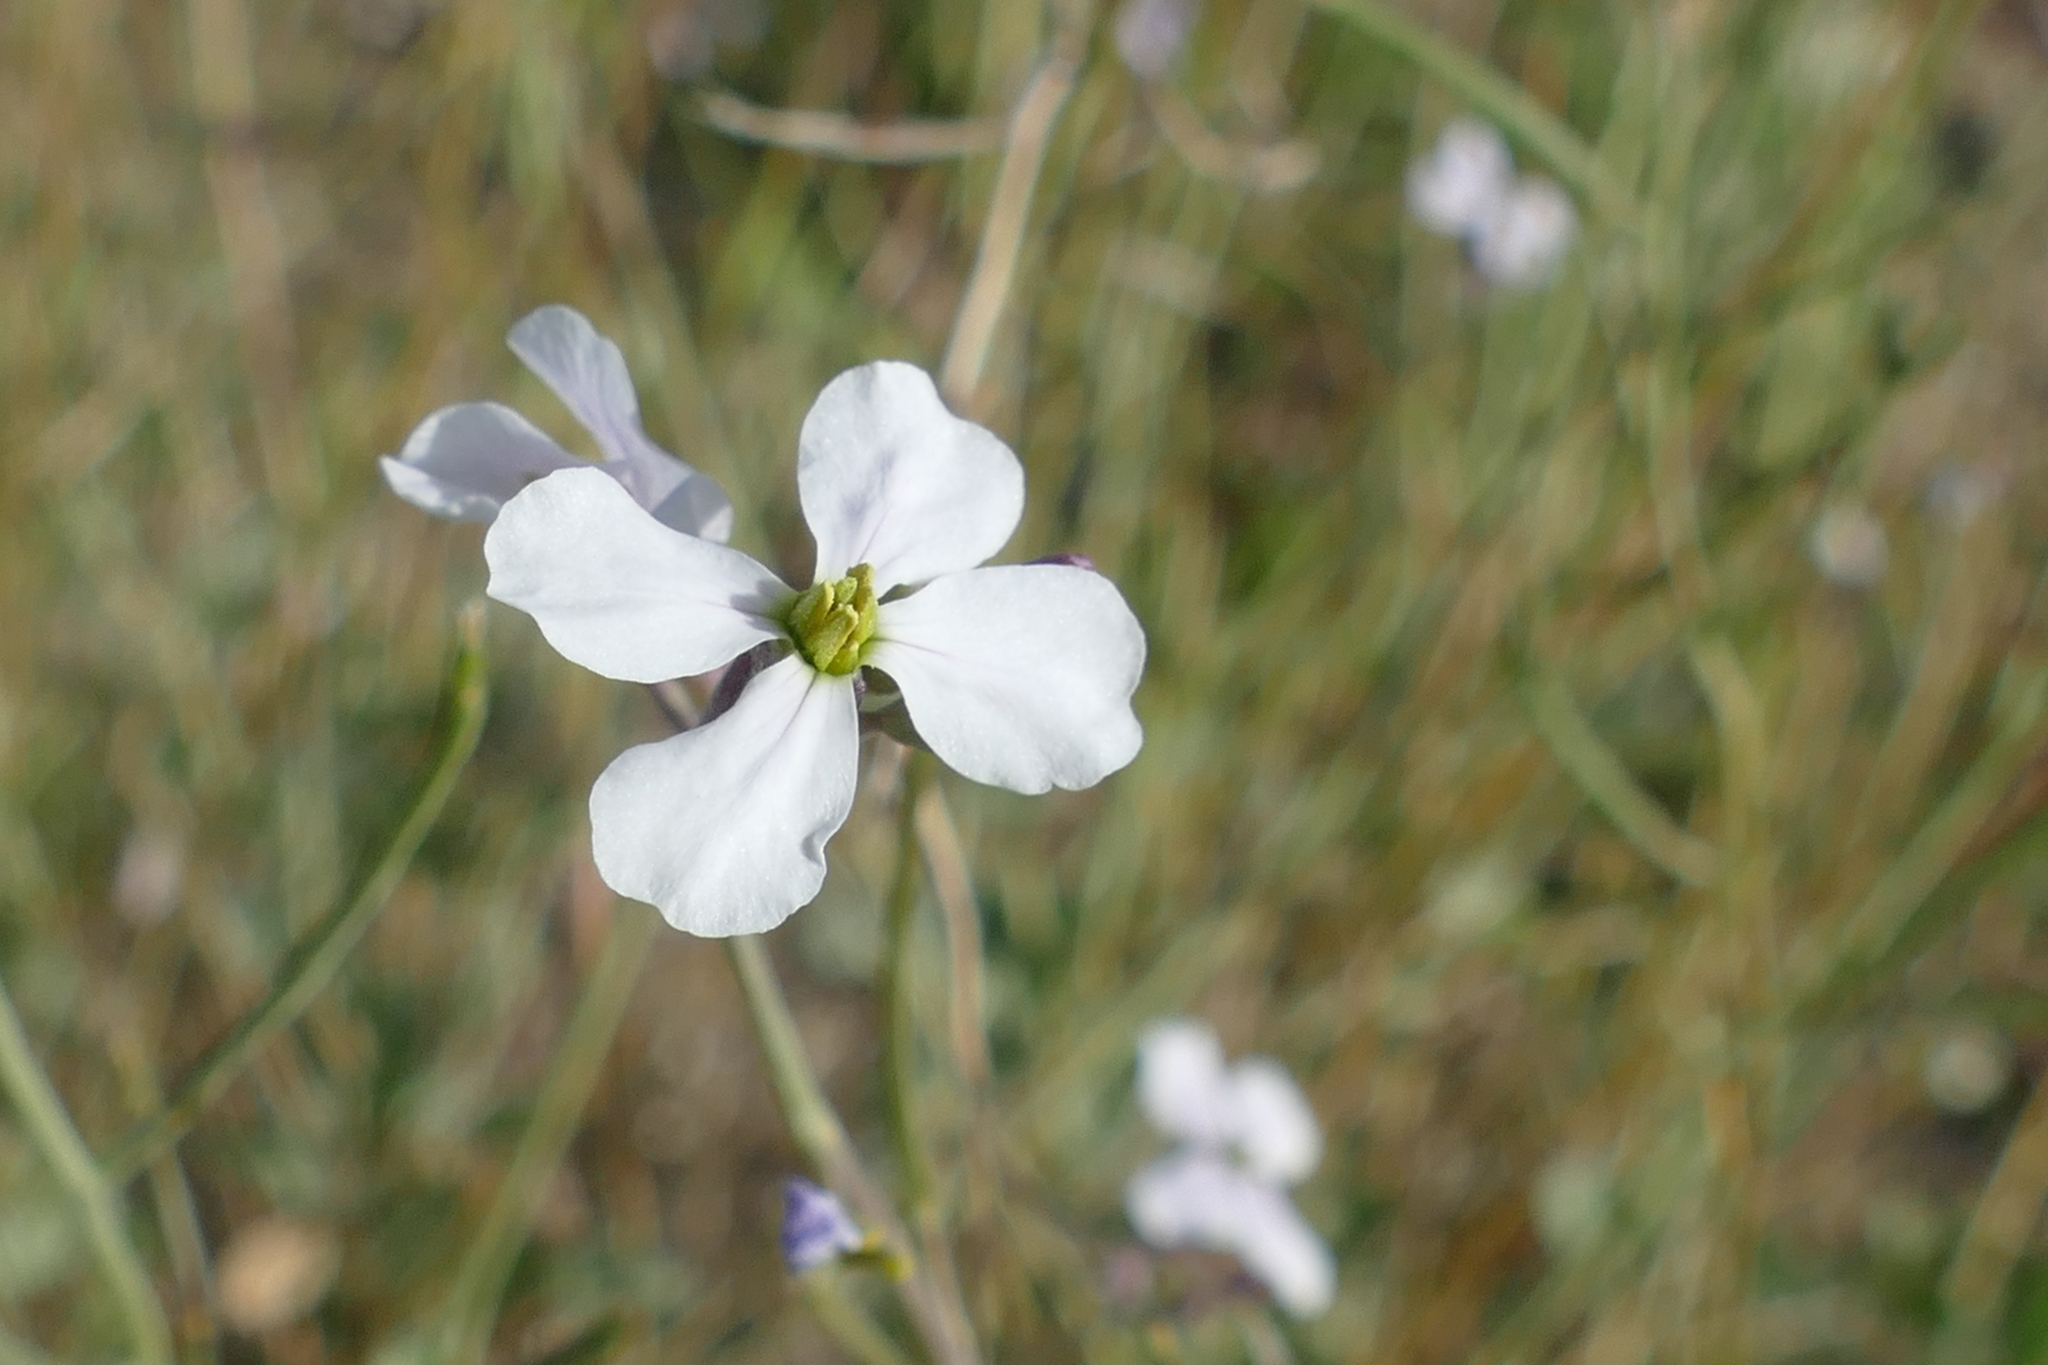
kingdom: Plantae
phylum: Tracheophyta
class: Magnoliopsida
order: Brassicales
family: Brassicaceae
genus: Moricandia
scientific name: Moricandia arvensis
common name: Purple mistress
